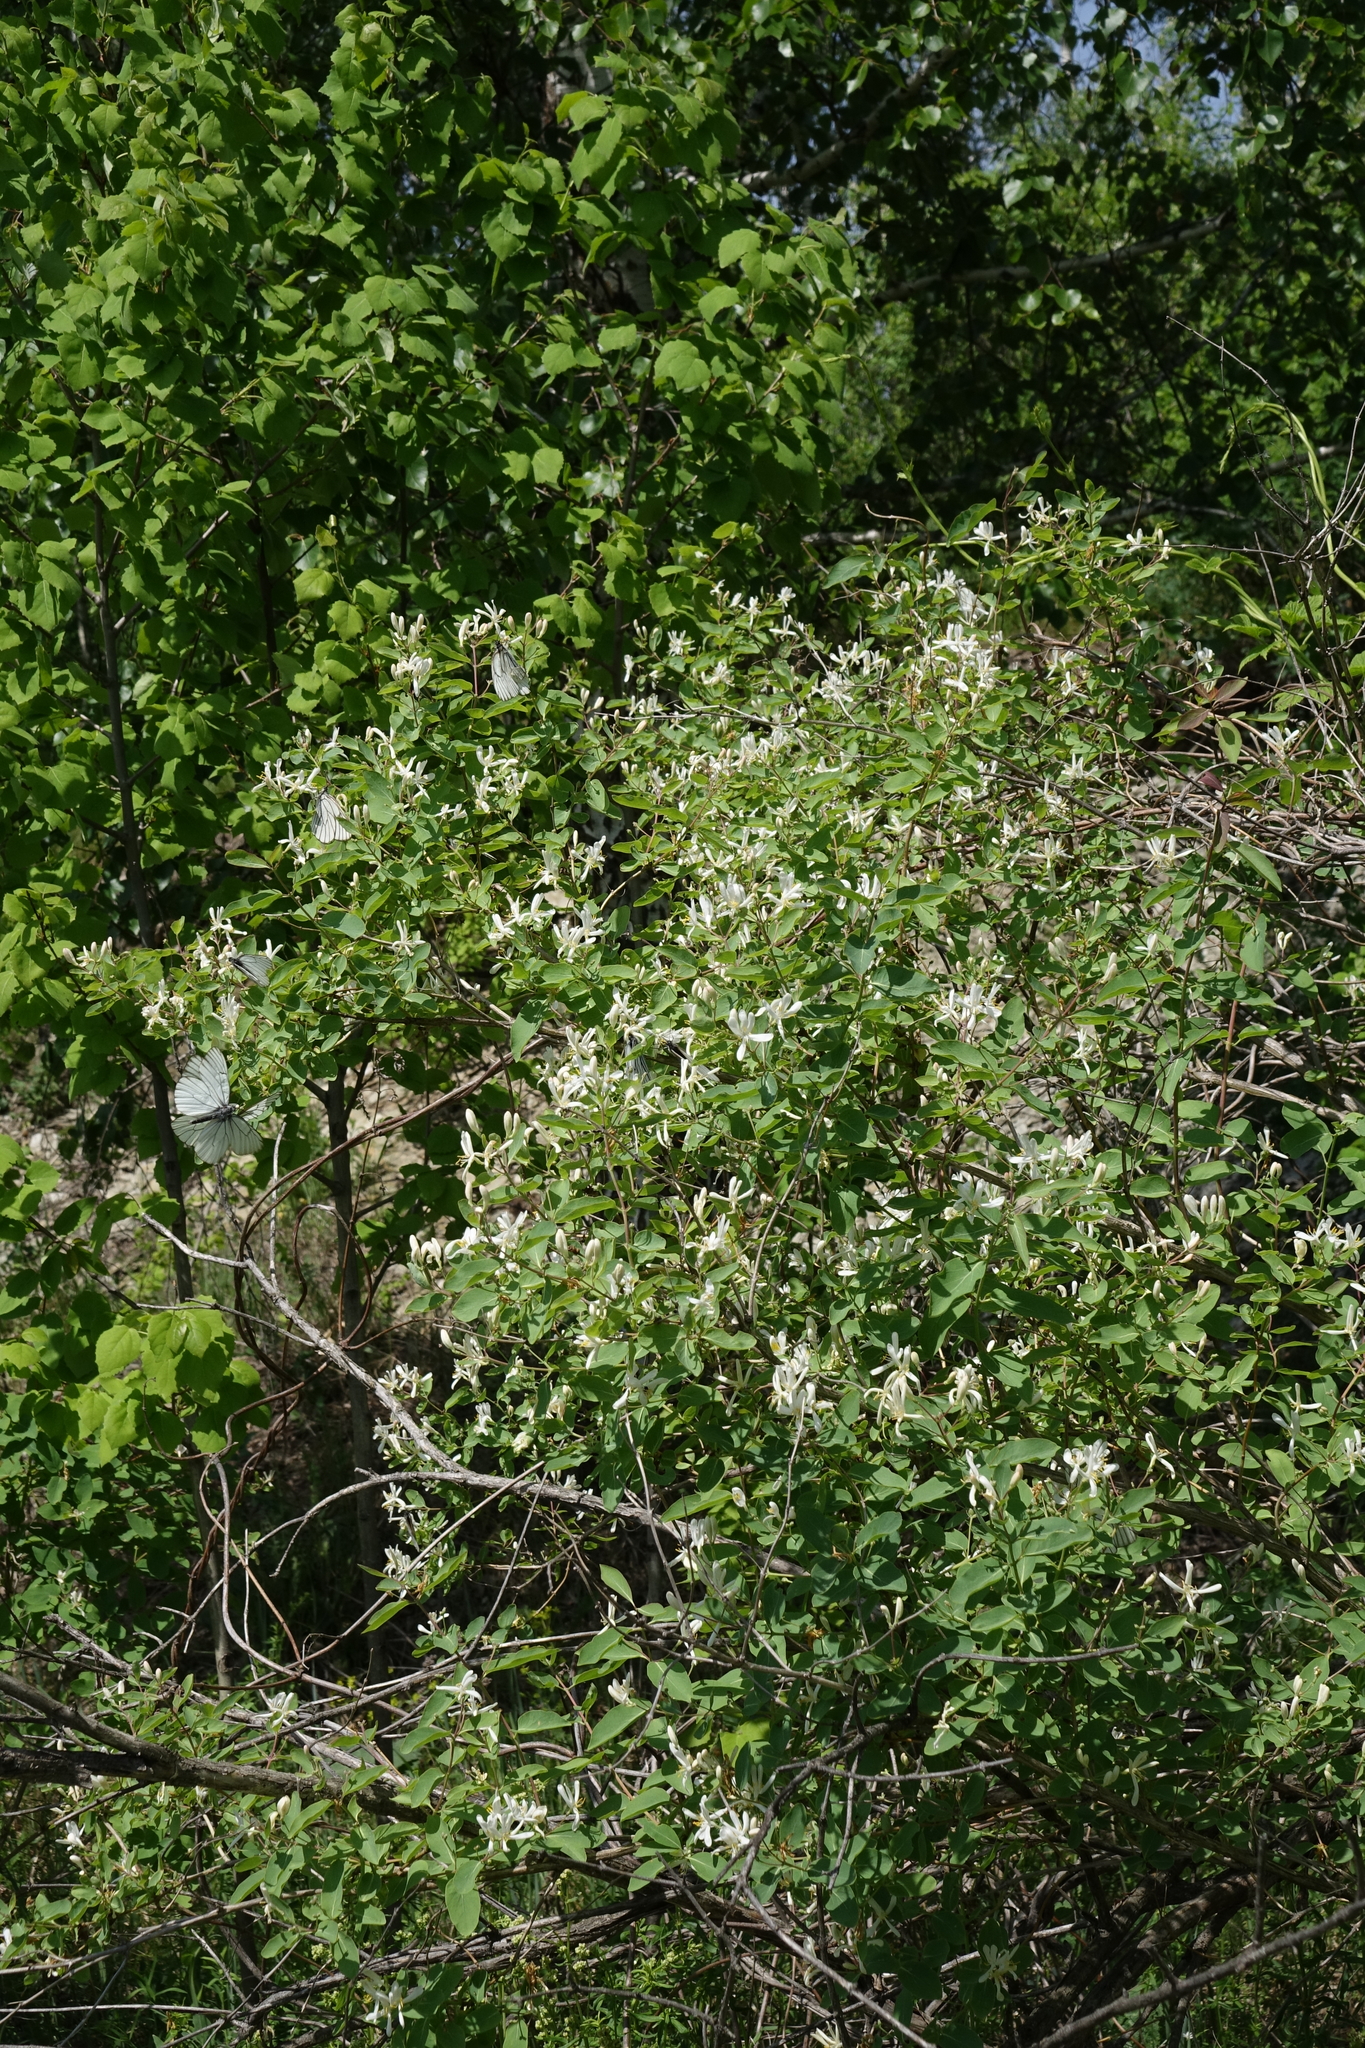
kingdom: Plantae
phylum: Tracheophyta
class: Magnoliopsida
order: Dipsacales
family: Caprifoliaceae
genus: Lonicera
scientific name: Lonicera tatarica
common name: Tatarian honeysuckle
